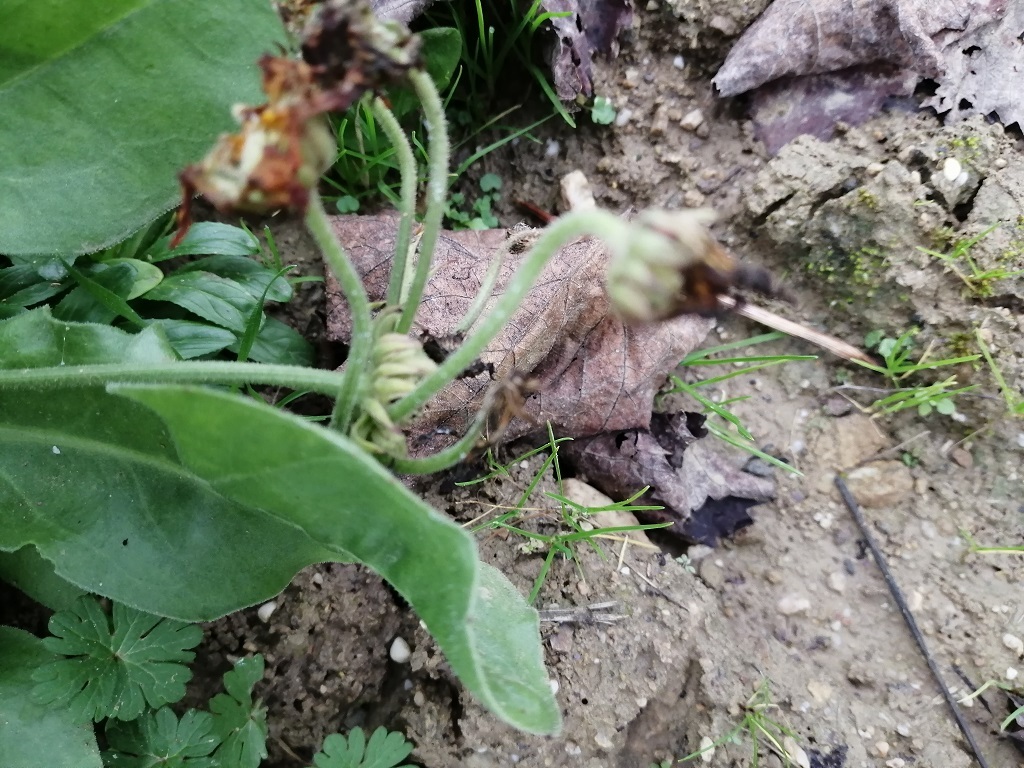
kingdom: Plantae
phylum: Tracheophyta
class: Magnoliopsida
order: Asterales
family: Asteraceae
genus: Calendula
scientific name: Calendula officinalis
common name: Pot marigold
